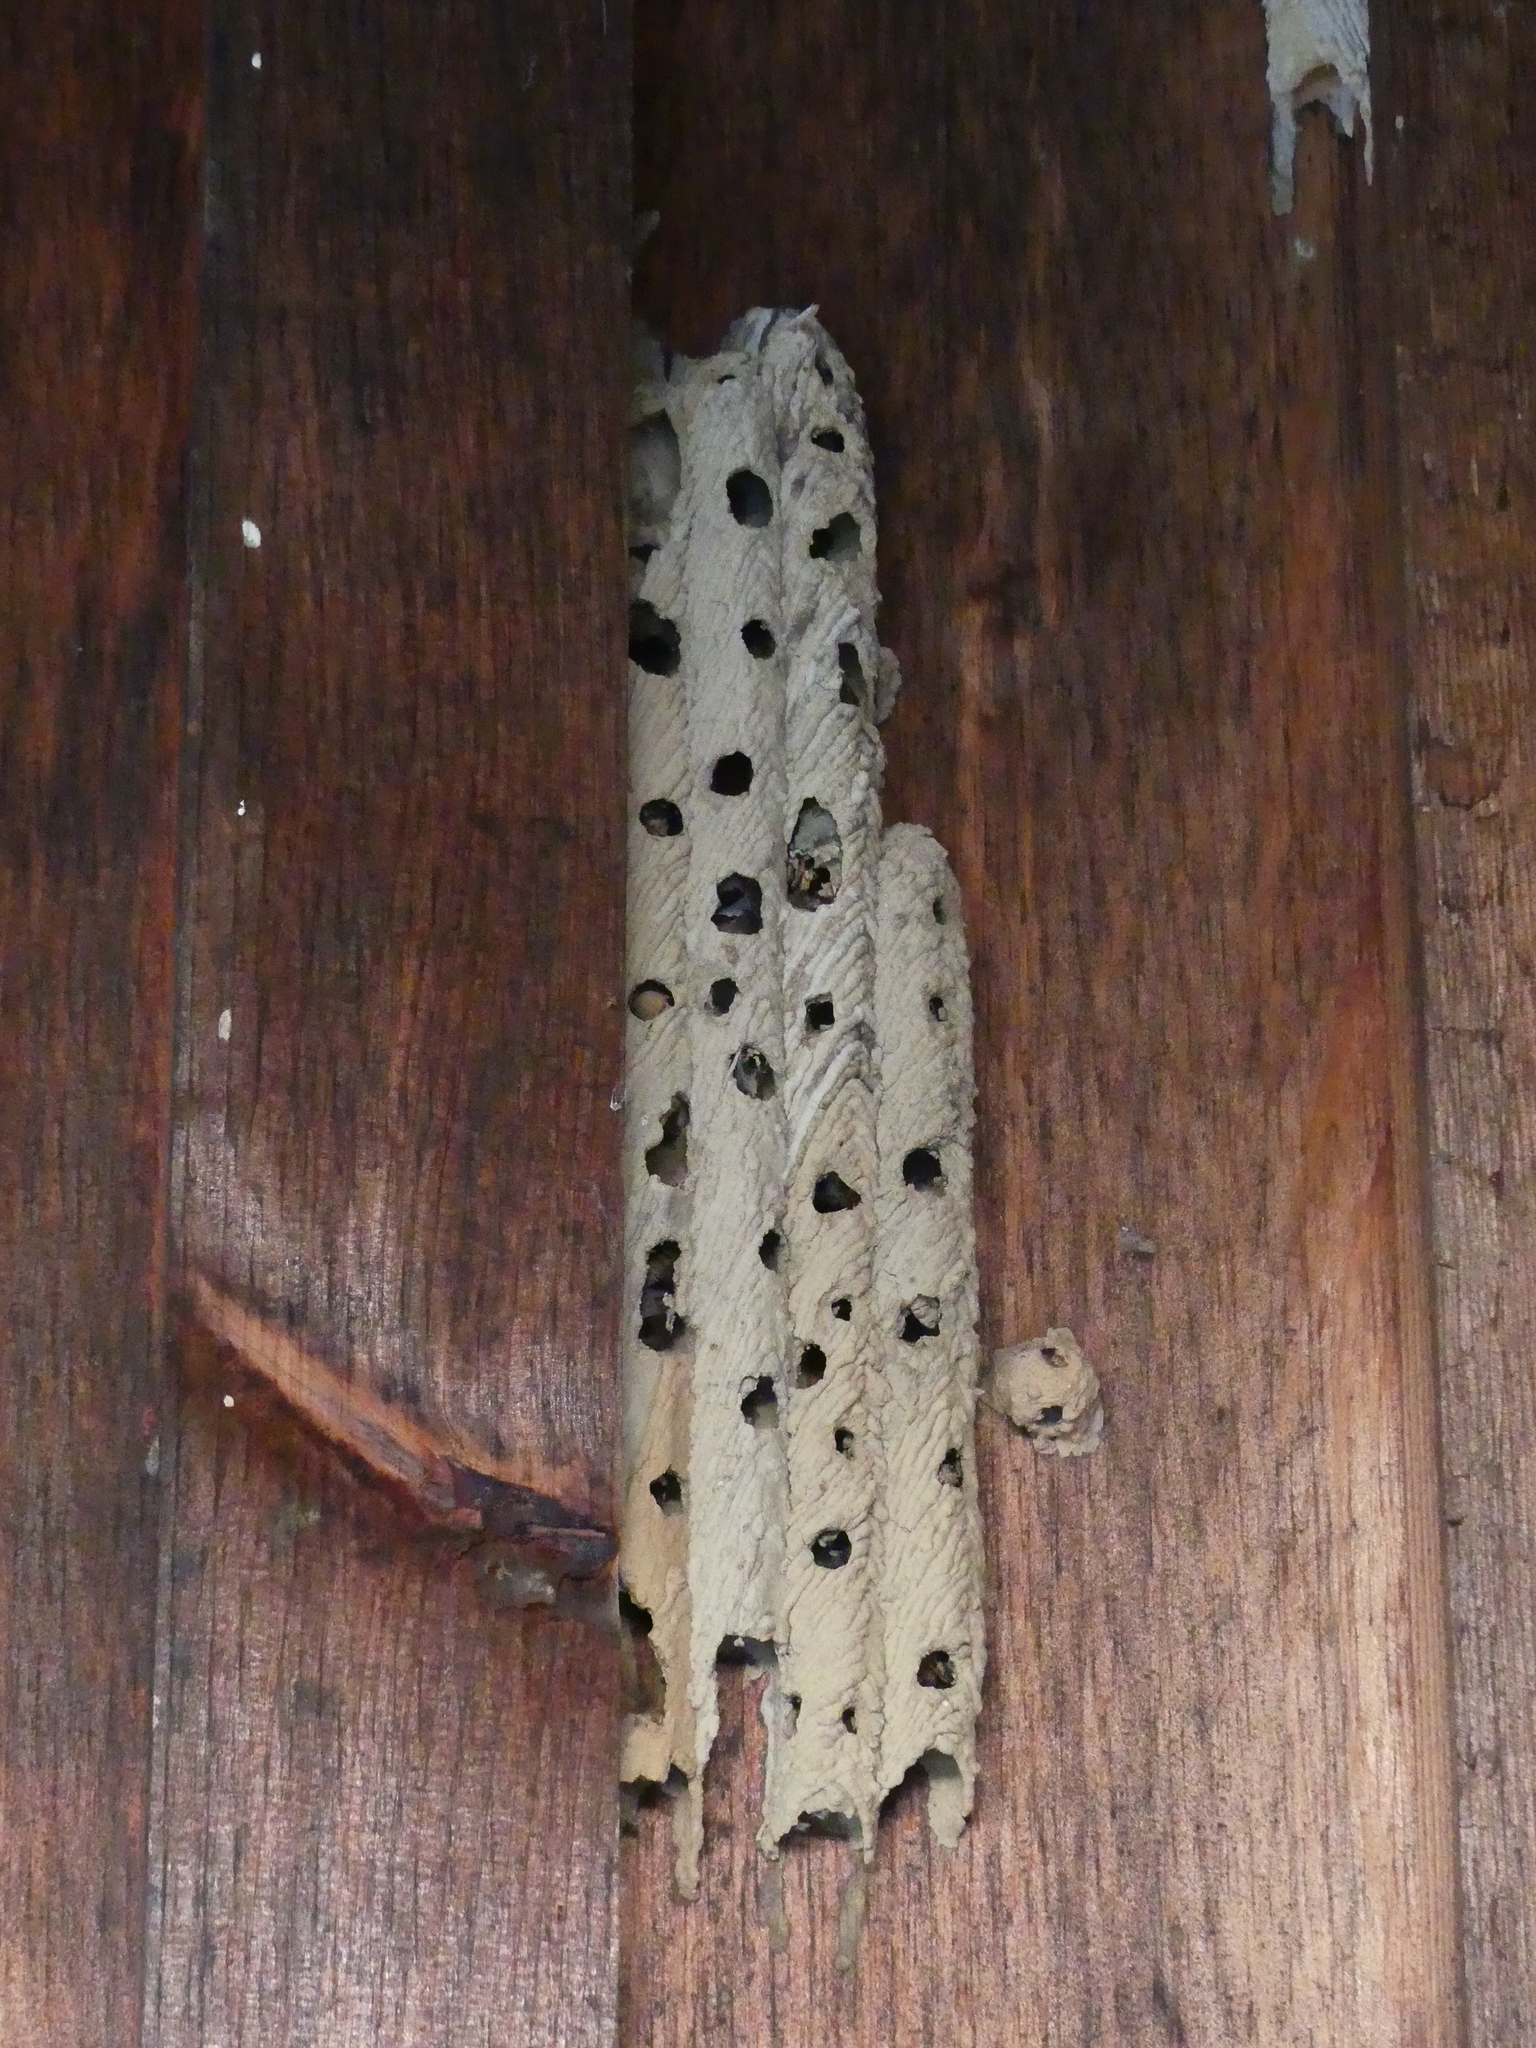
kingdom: Animalia
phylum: Arthropoda
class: Insecta
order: Hymenoptera
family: Crabronidae
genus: Trypoxylon
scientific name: Trypoxylon politum
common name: Organ-pipe mud-dauber wasp
